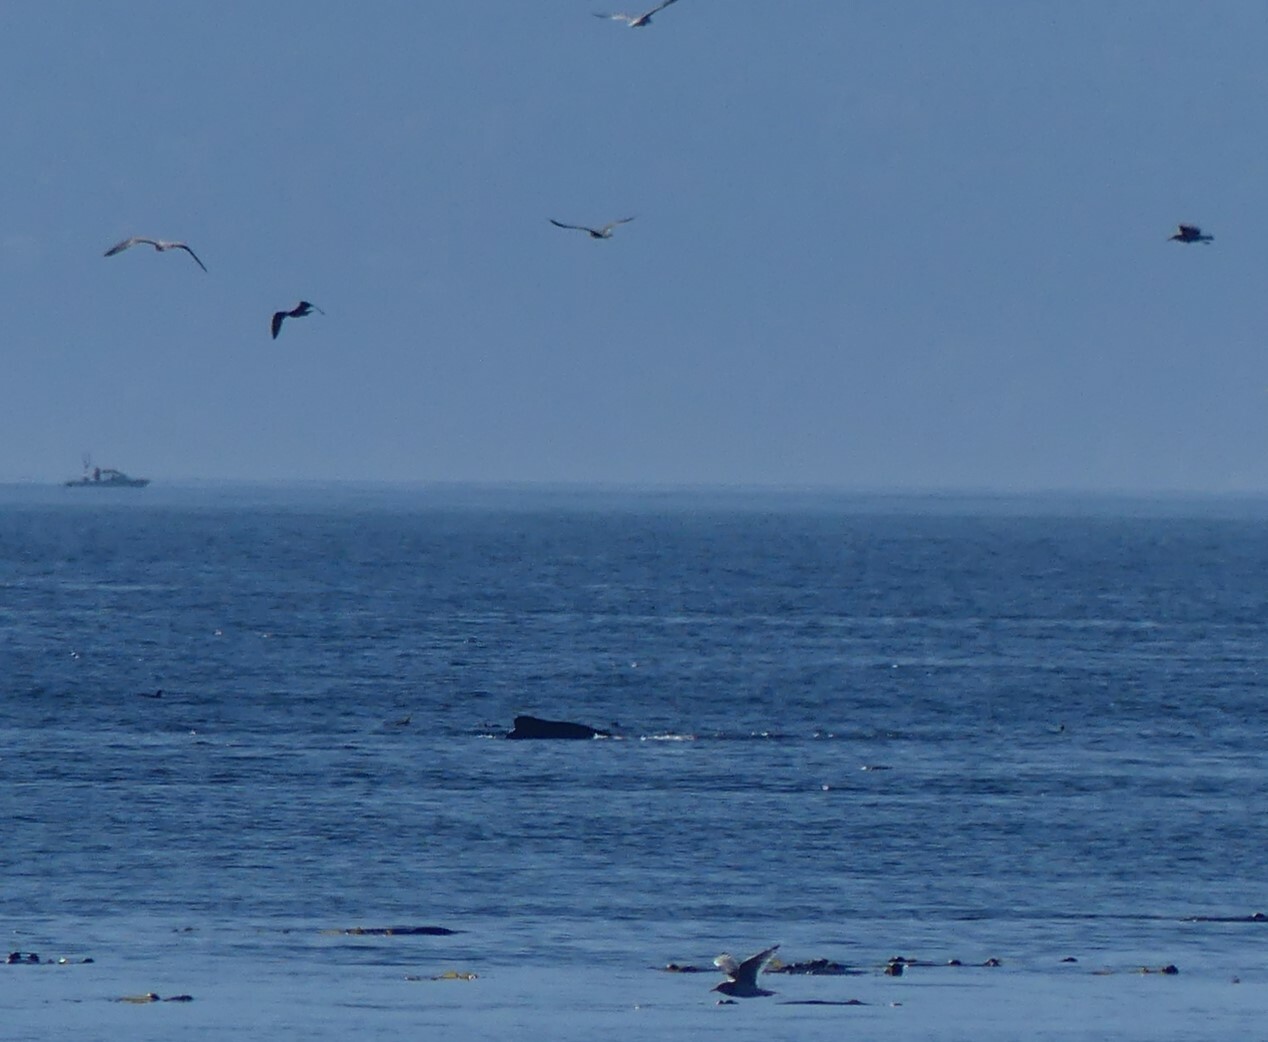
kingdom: Animalia
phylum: Chordata
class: Mammalia
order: Cetacea
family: Balaenopteridae
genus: Megaptera
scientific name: Megaptera novaeangliae
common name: Humpback whale
